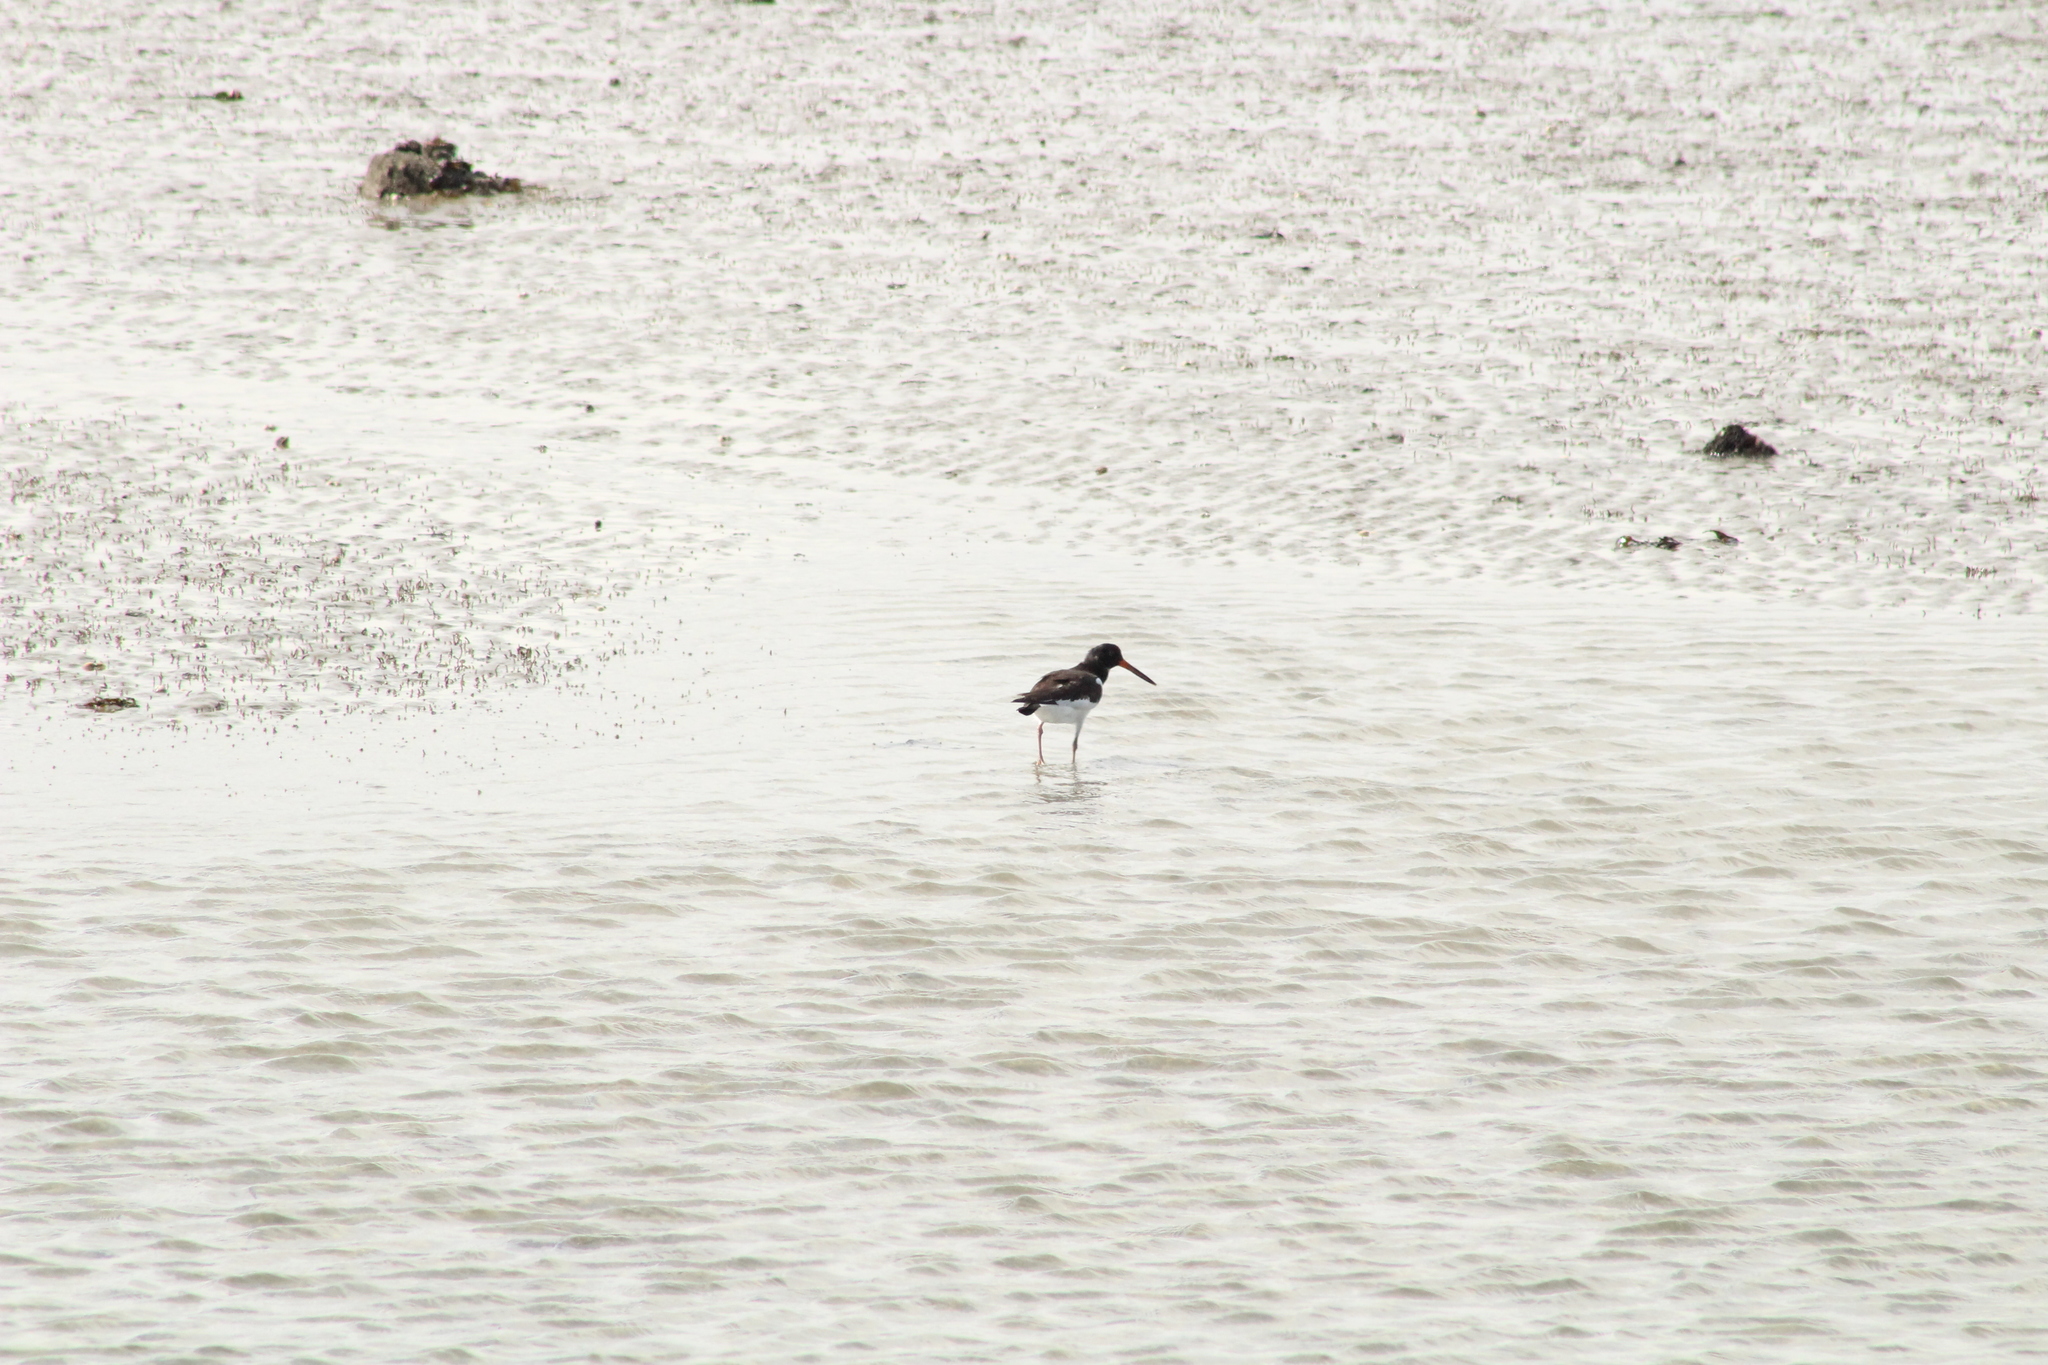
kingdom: Animalia
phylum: Chordata
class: Aves
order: Charadriiformes
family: Haematopodidae
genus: Haematopus
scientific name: Haematopus ostralegus
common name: Eurasian oystercatcher
